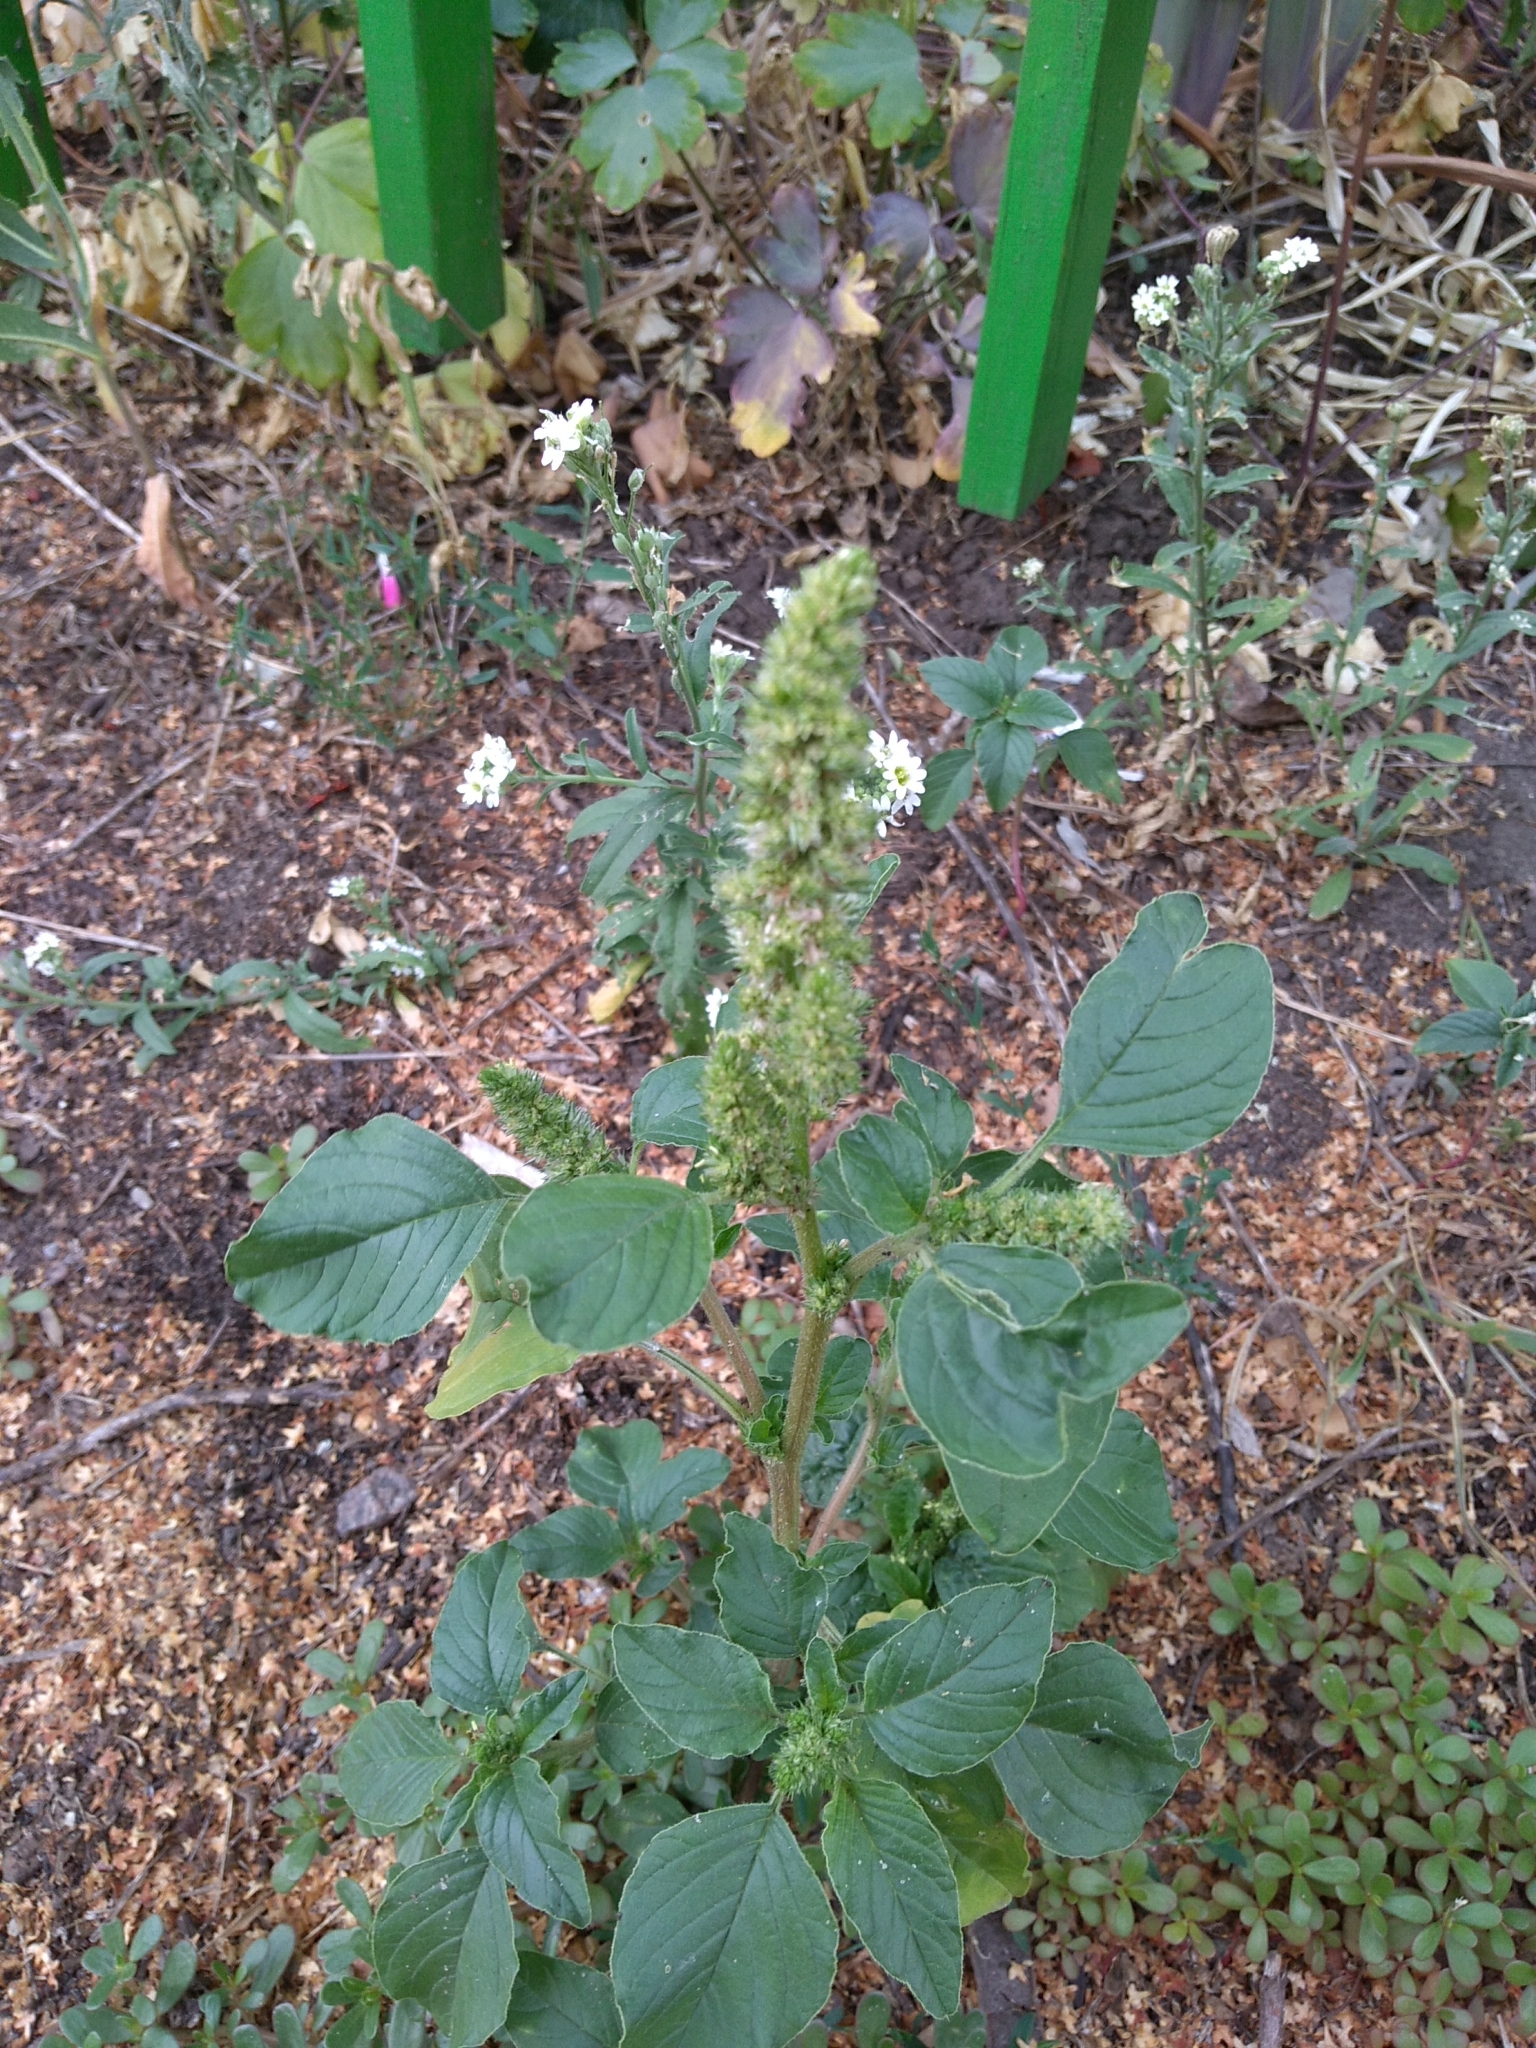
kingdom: Plantae
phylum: Tracheophyta
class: Magnoliopsida
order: Caryophyllales
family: Amaranthaceae
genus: Amaranthus
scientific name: Amaranthus retroflexus
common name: Redroot amaranth
